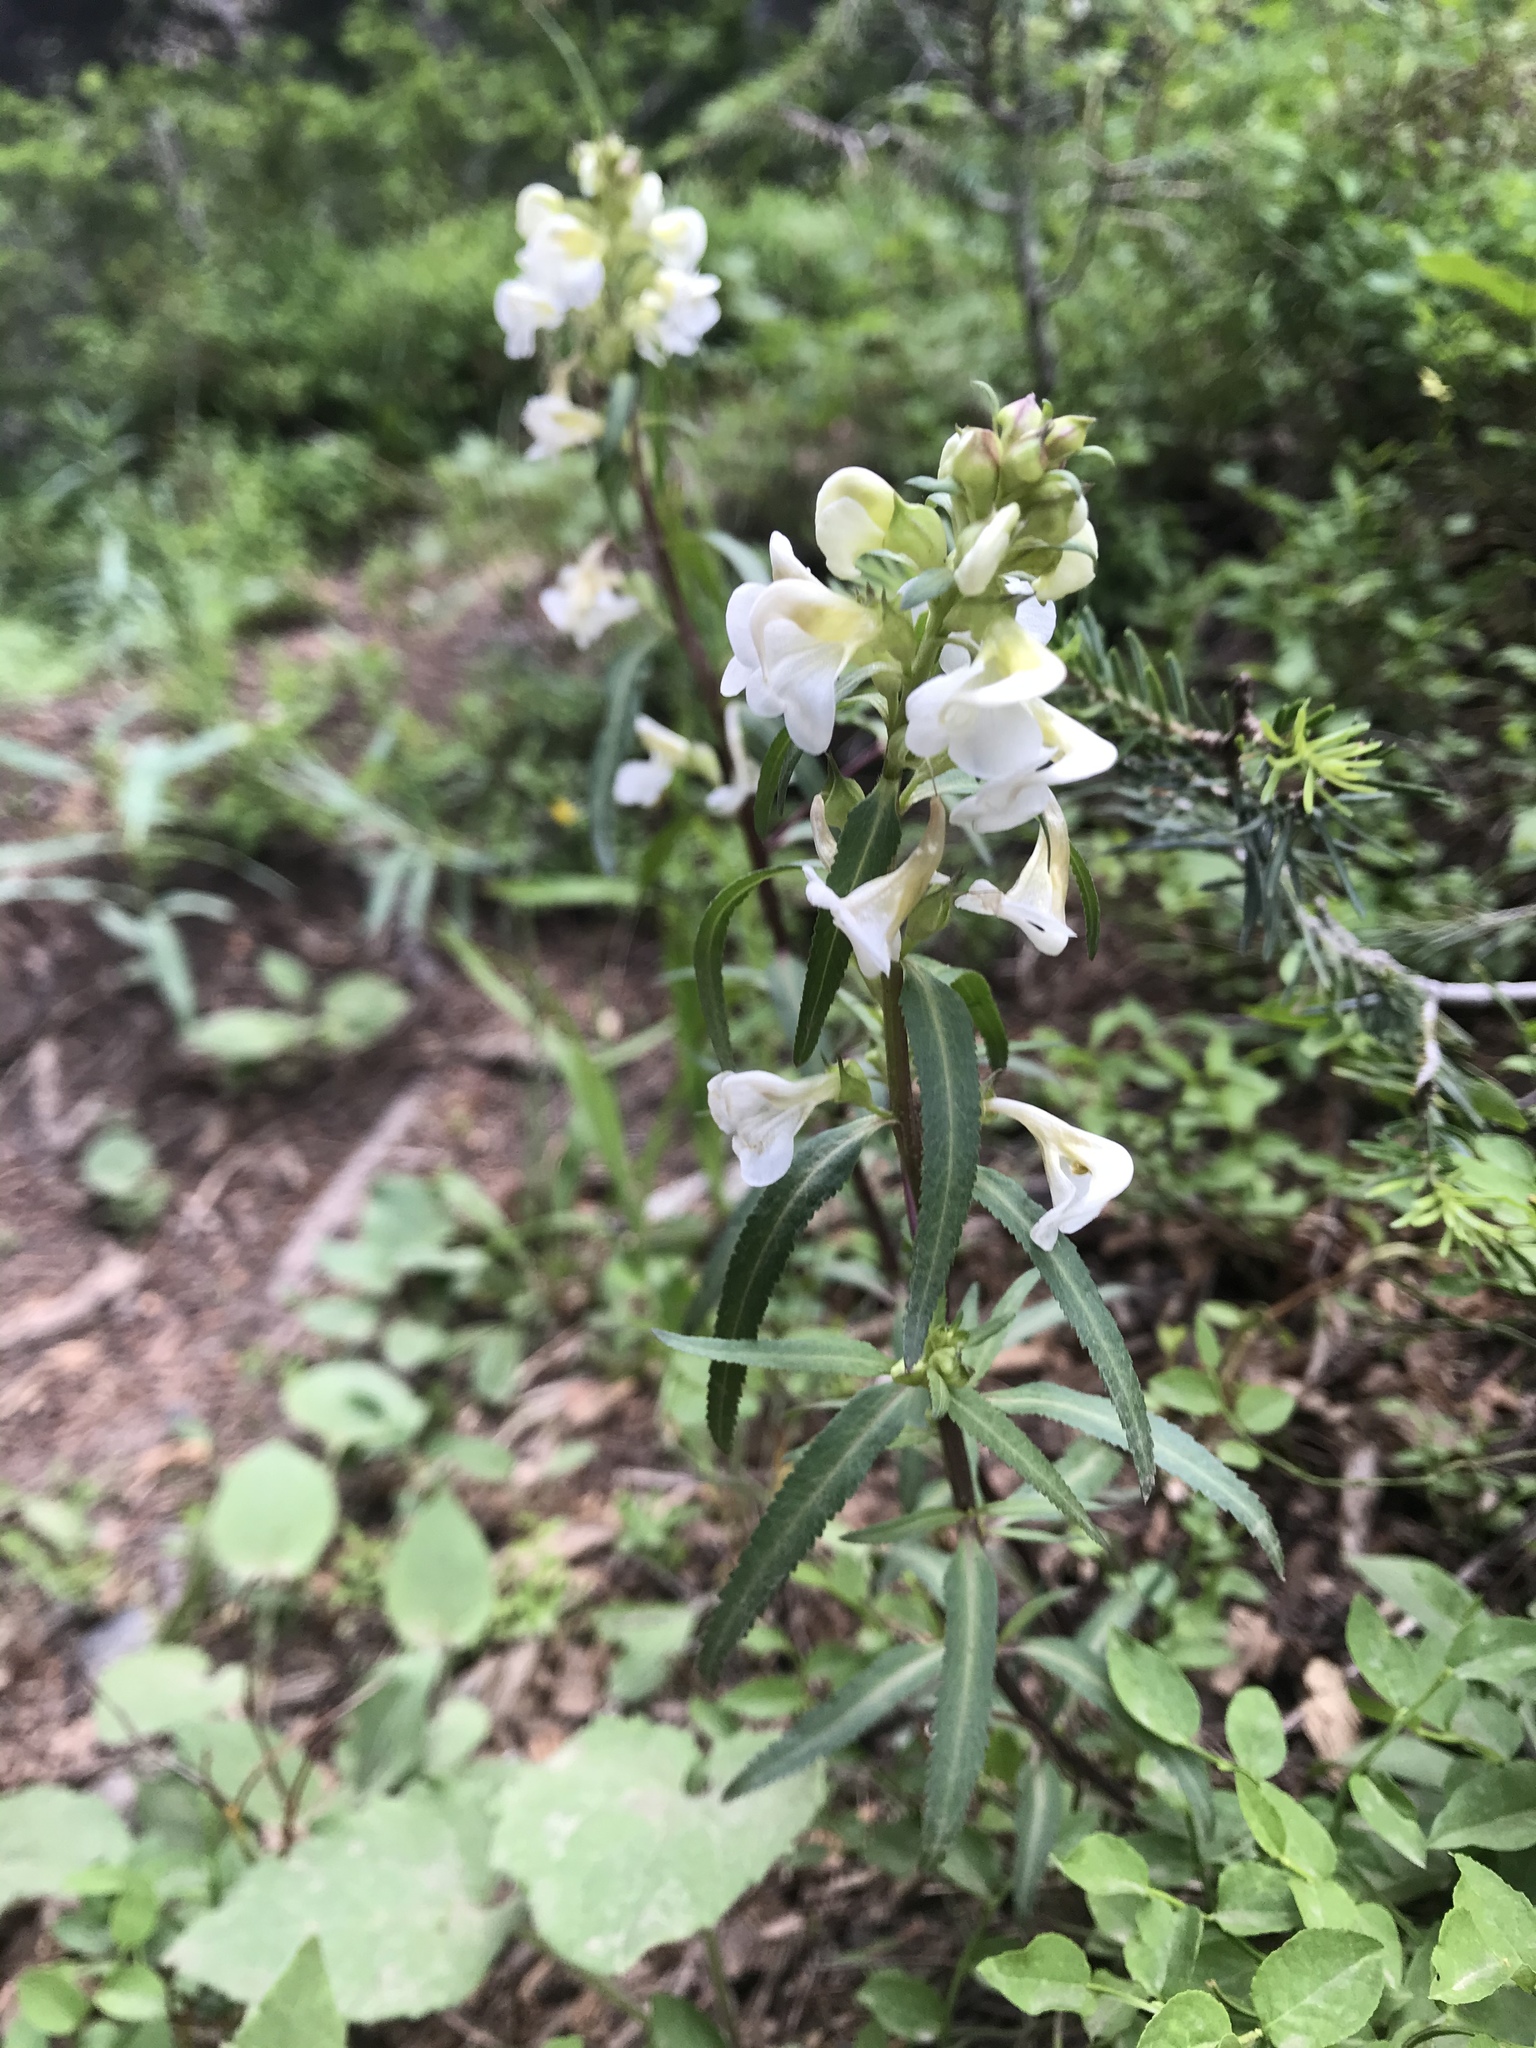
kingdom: Plantae
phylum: Tracheophyta
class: Magnoliopsida
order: Lamiales
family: Orobanchaceae
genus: Pedicularis
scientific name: Pedicularis racemosa
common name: Leafy lousewort
